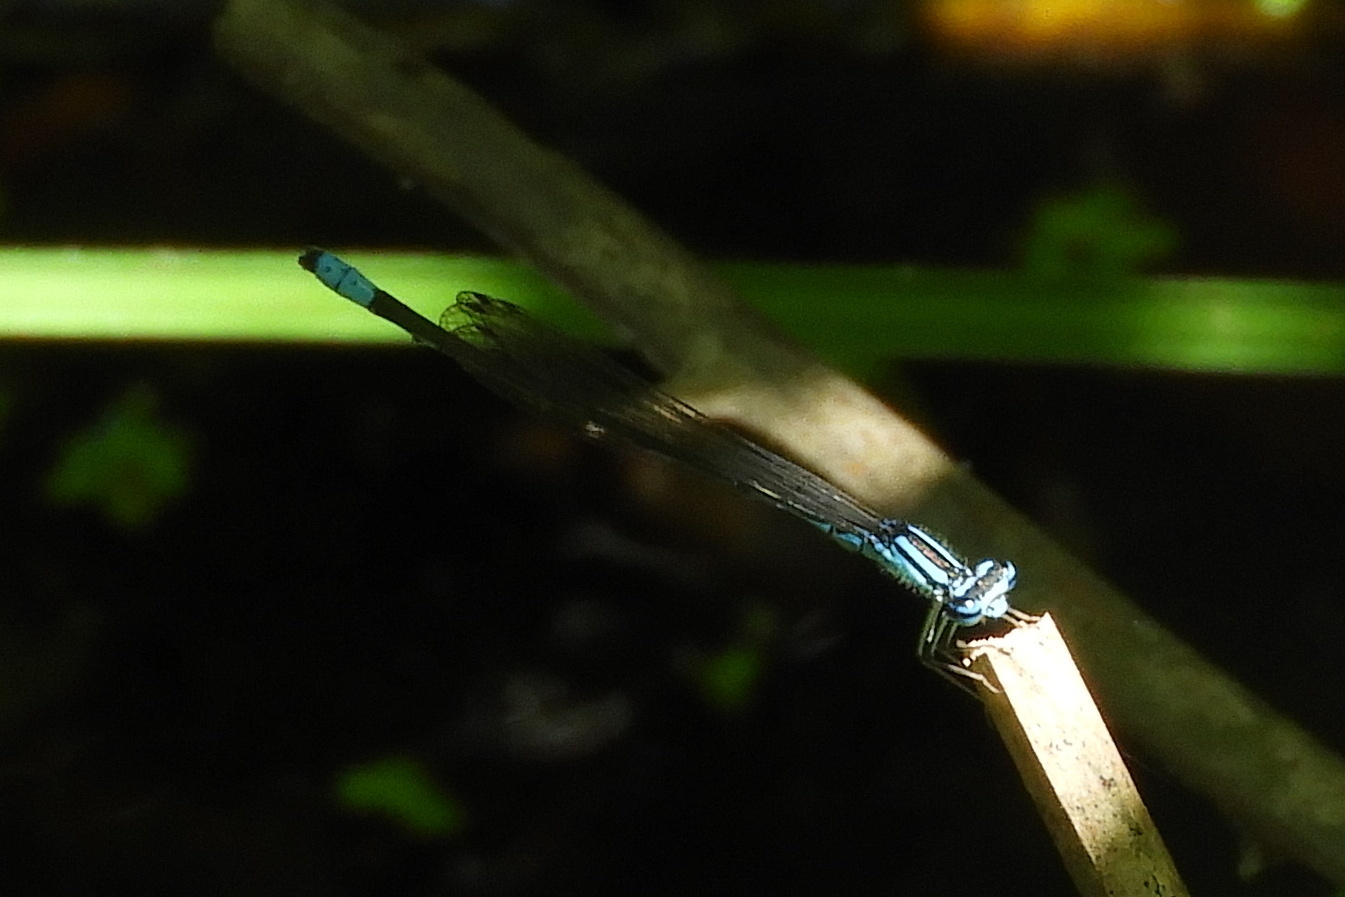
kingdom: Animalia
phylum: Arthropoda
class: Insecta
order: Odonata
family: Coenagrionidae
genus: Enallagma
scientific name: Enallagma divagans
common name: Turquoise bluet
